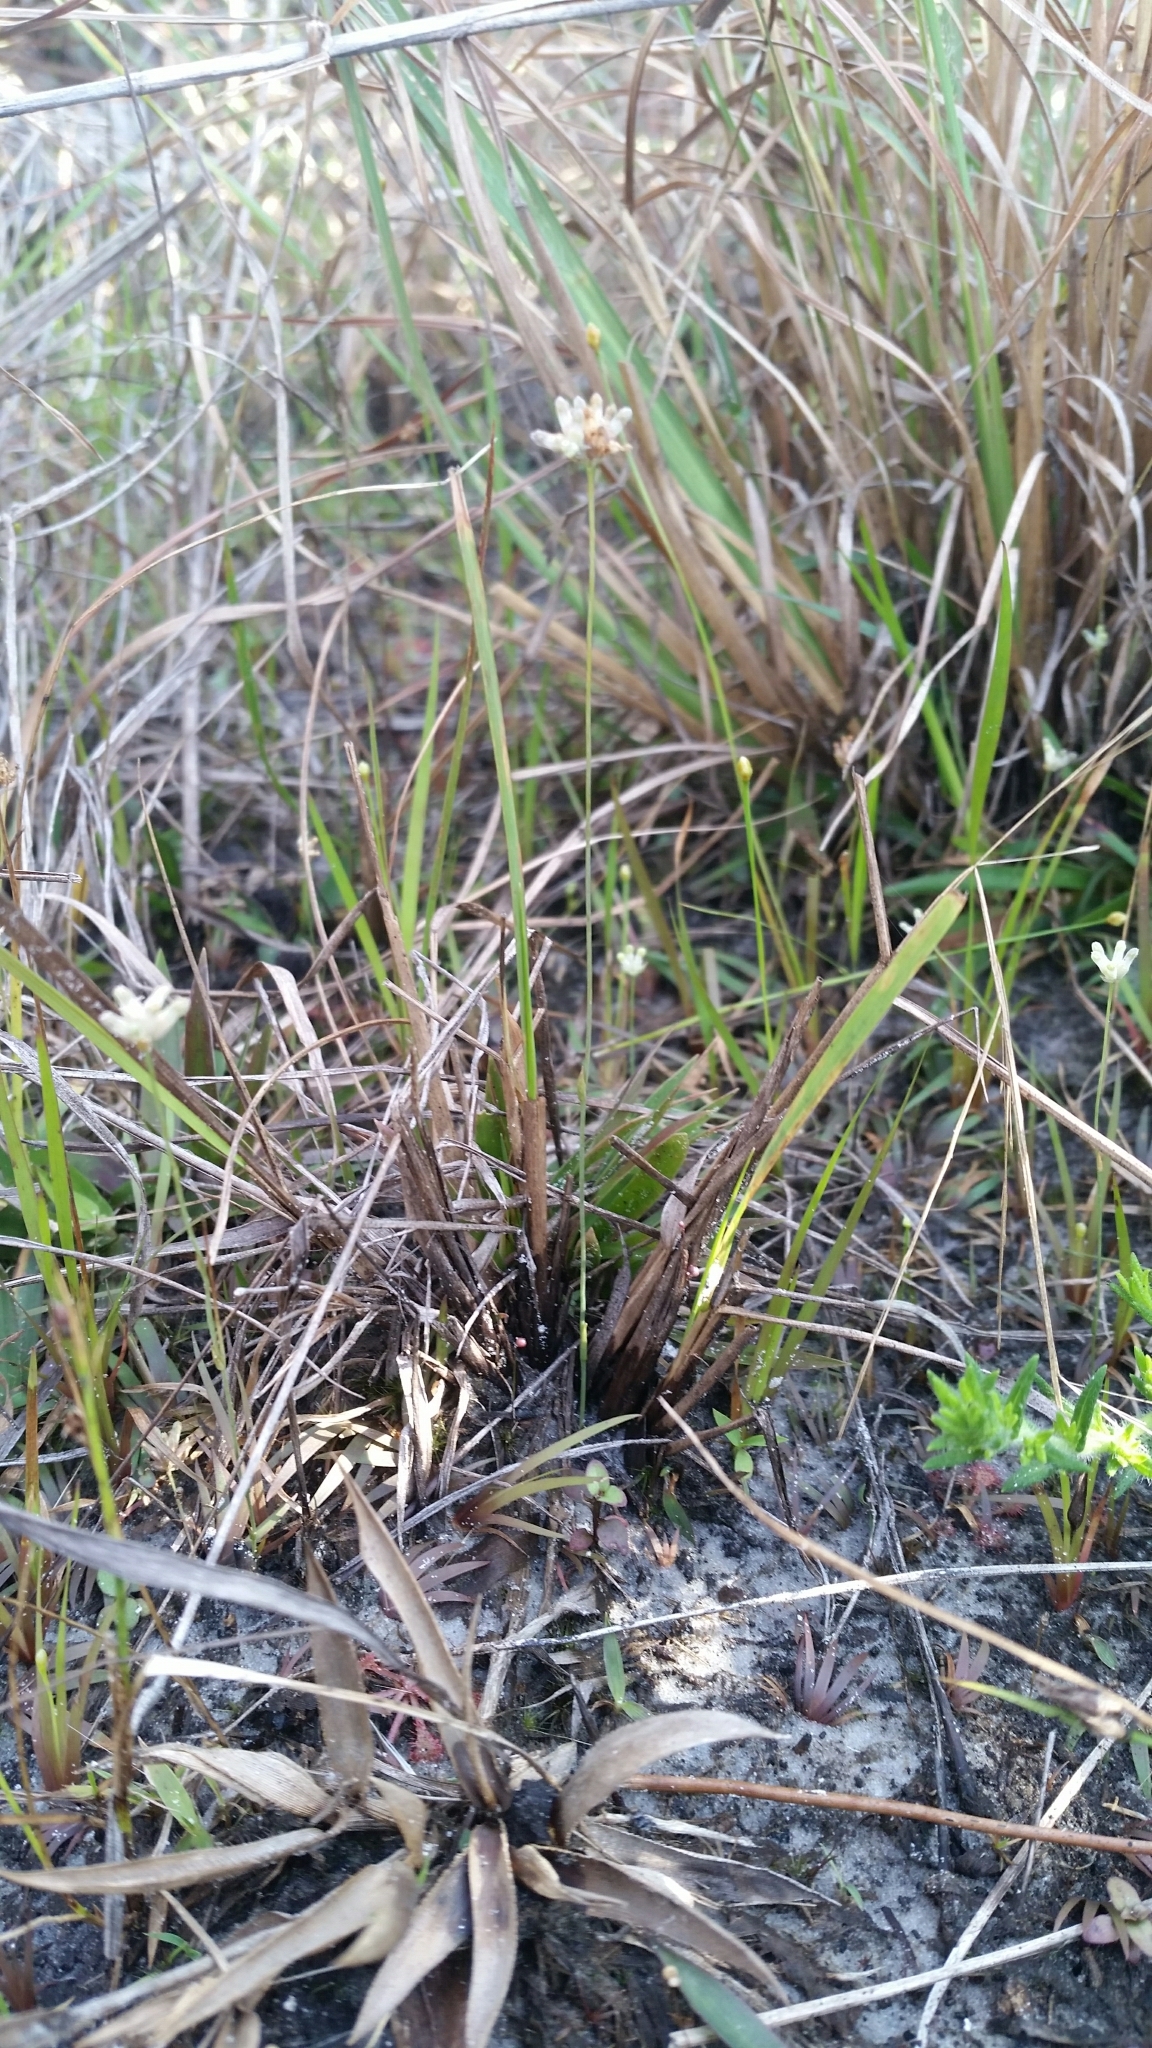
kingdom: Plantae
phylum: Tracheophyta
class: Liliopsida
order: Dioscoreales
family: Burmanniaceae
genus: Burmannia
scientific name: Burmannia capitata
